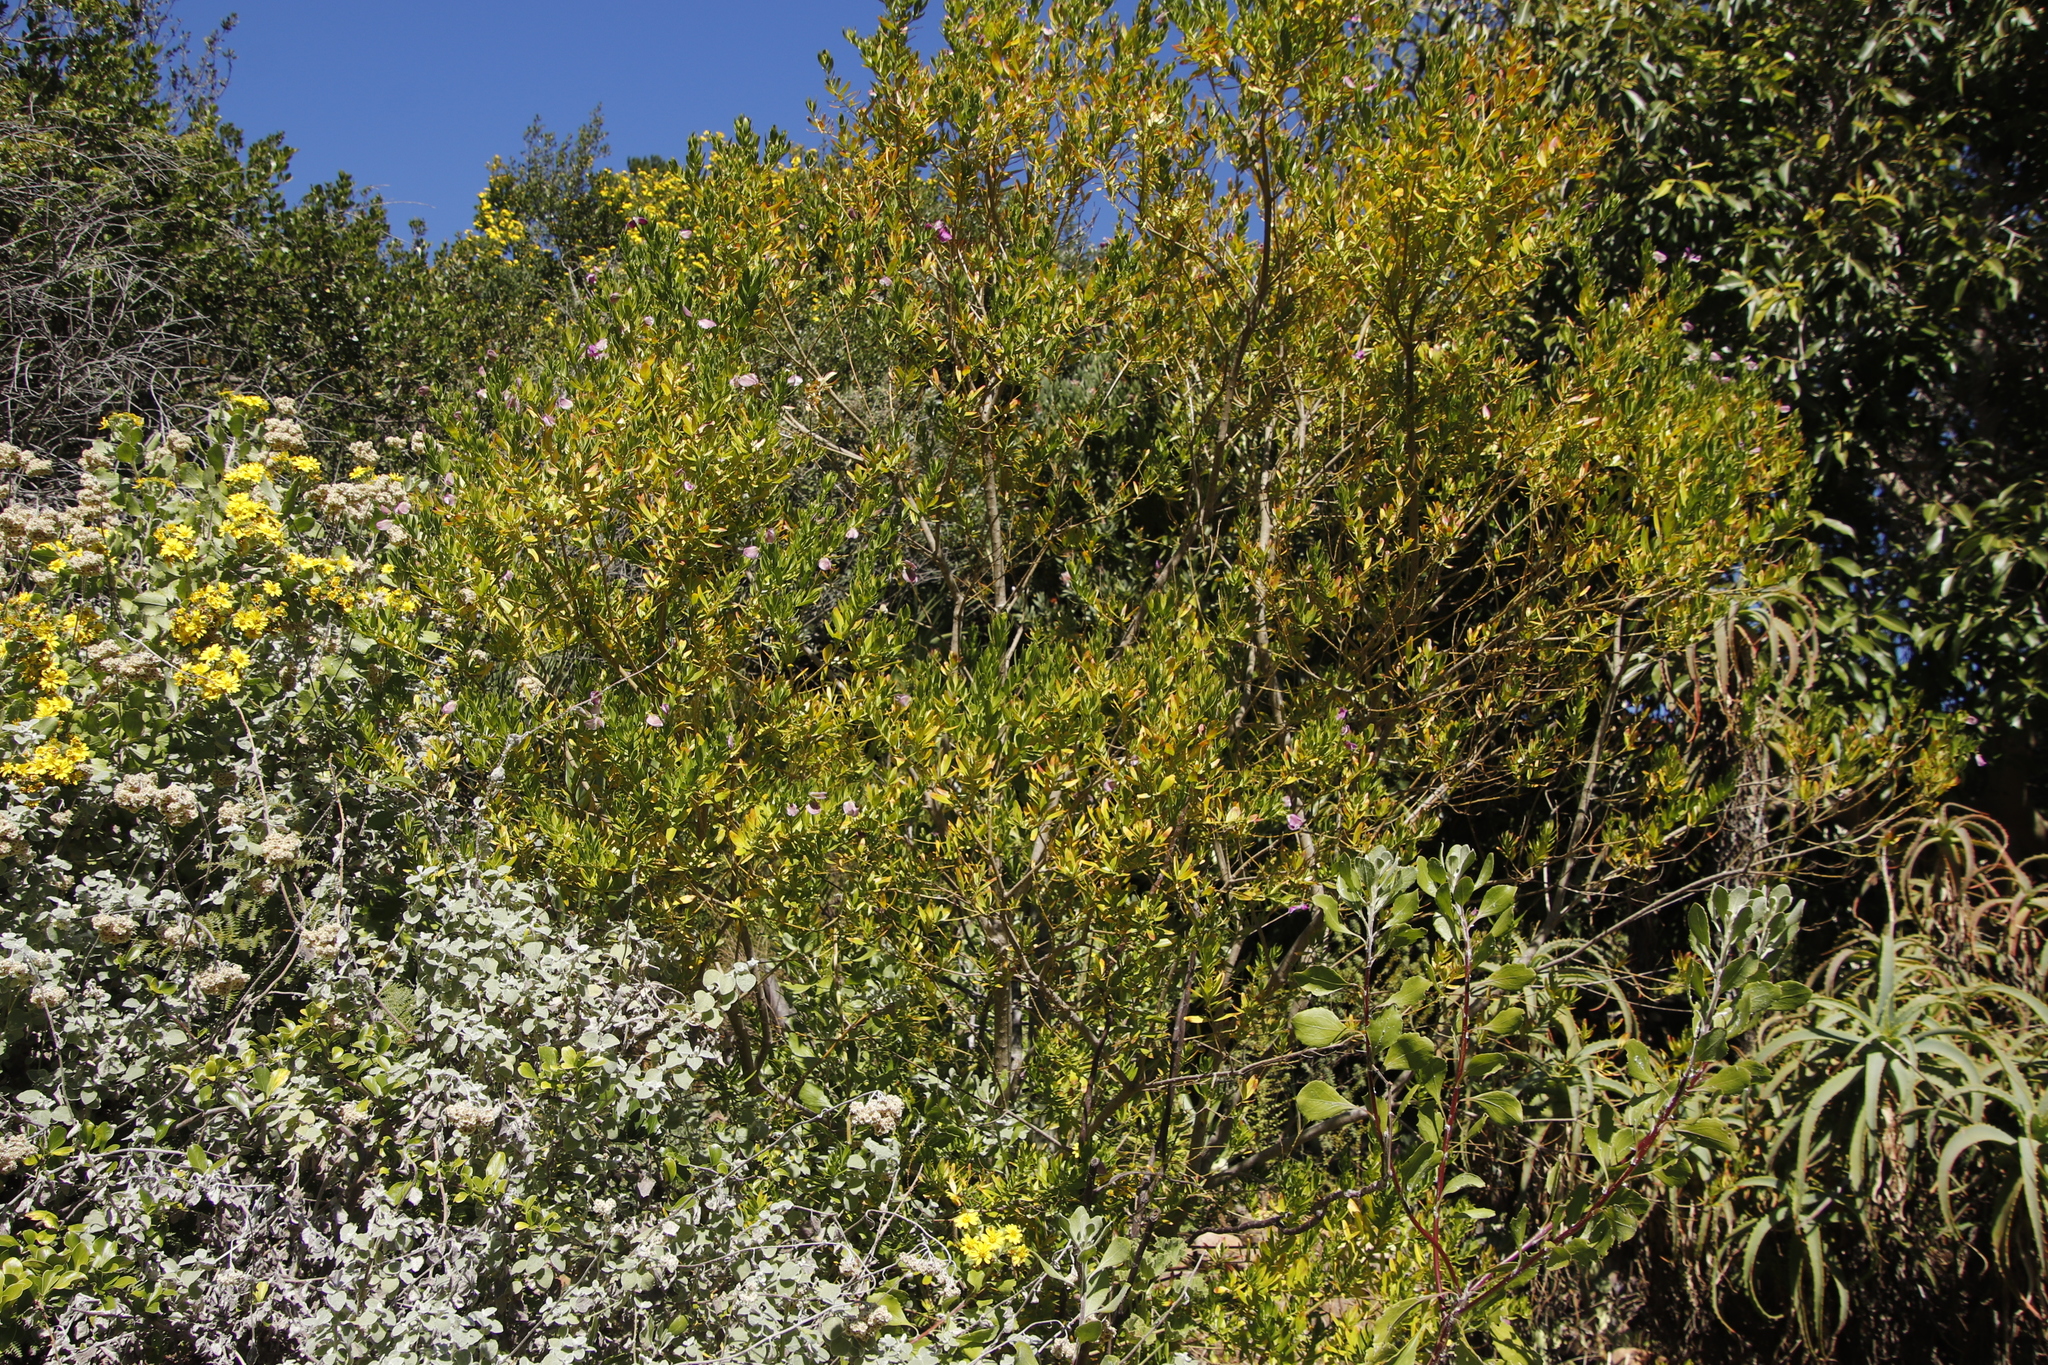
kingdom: Plantae
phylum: Tracheophyta
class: Magnoliopsida
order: Fabales
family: Polygalaceae
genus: Polygala
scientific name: Polygala myrtifolia
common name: Myrtle-leaf milkwort
